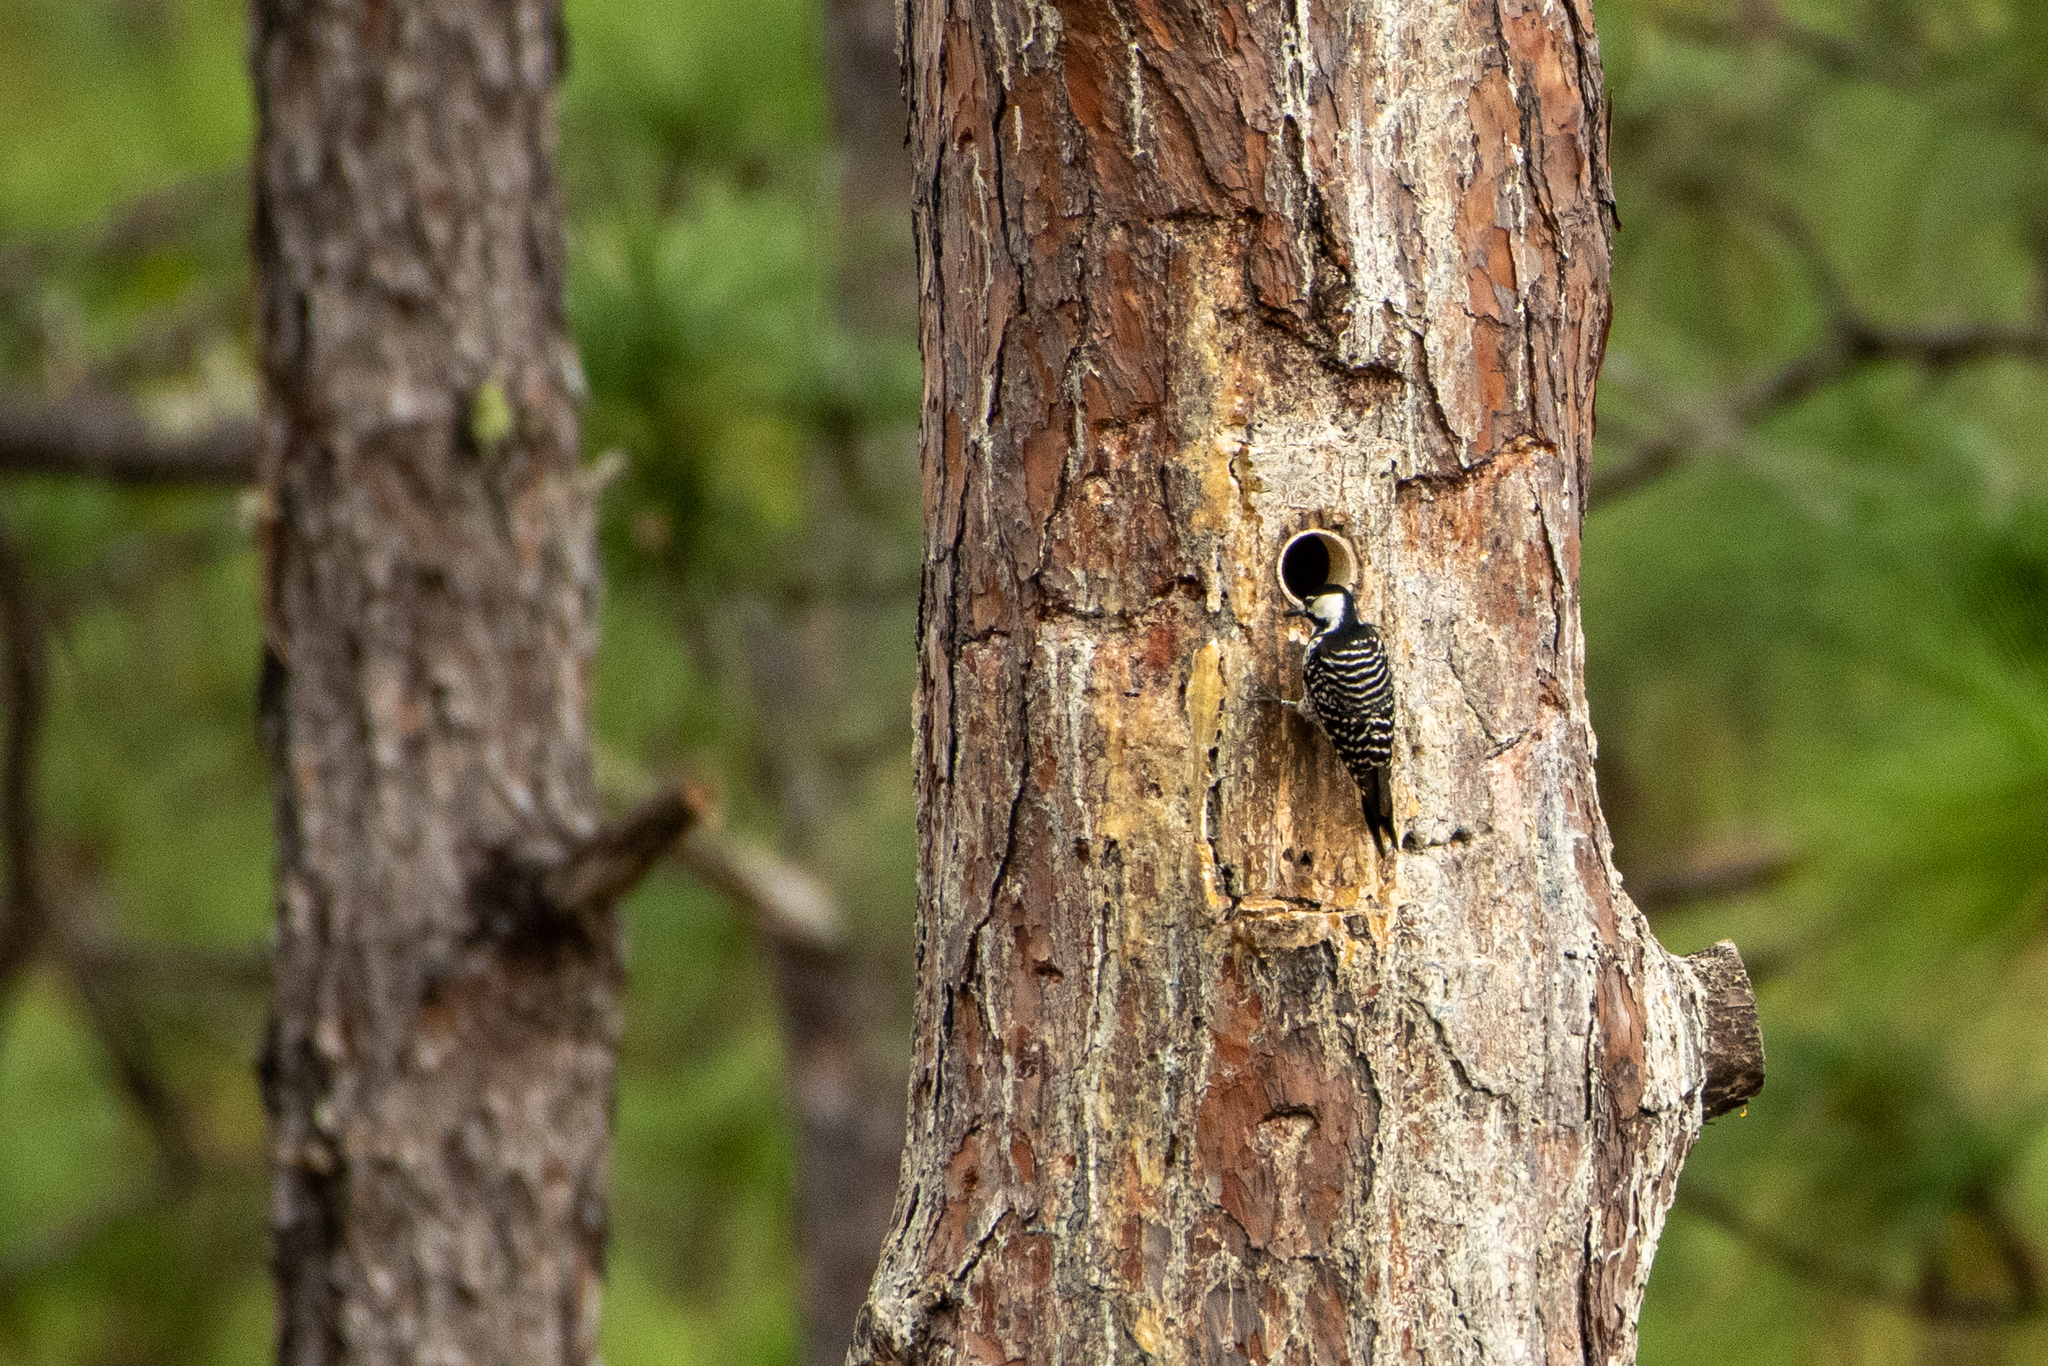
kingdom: Animalia
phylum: Chordata
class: Aves
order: Piciformes
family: Picidae
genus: Leuconotopicus
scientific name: Leuconotopicus borealis
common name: Red-cockaded woodpecker
